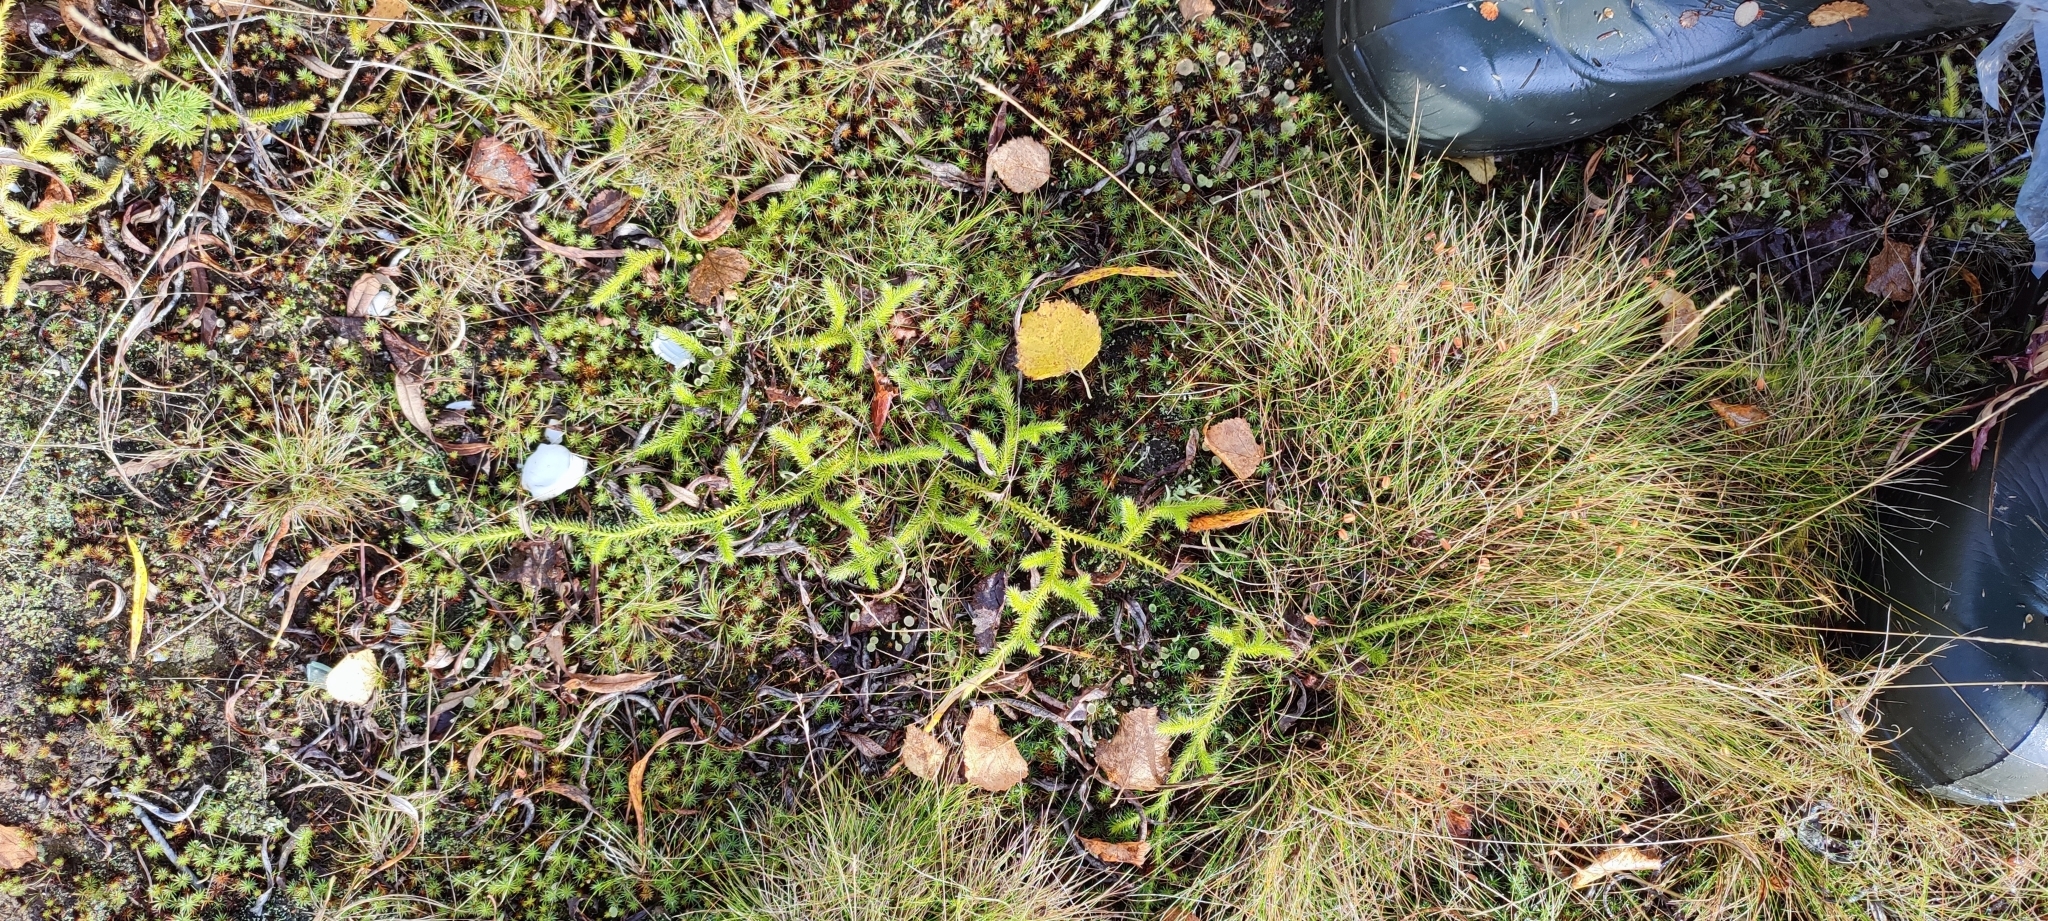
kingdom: Plantae
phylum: Tracheophyta
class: Lycopodiopsida
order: Lycopodiales
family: Lycopodiaceae
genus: Lycopodium
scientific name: Lycopodium clavatum
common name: Stag's-horn clubmoss
